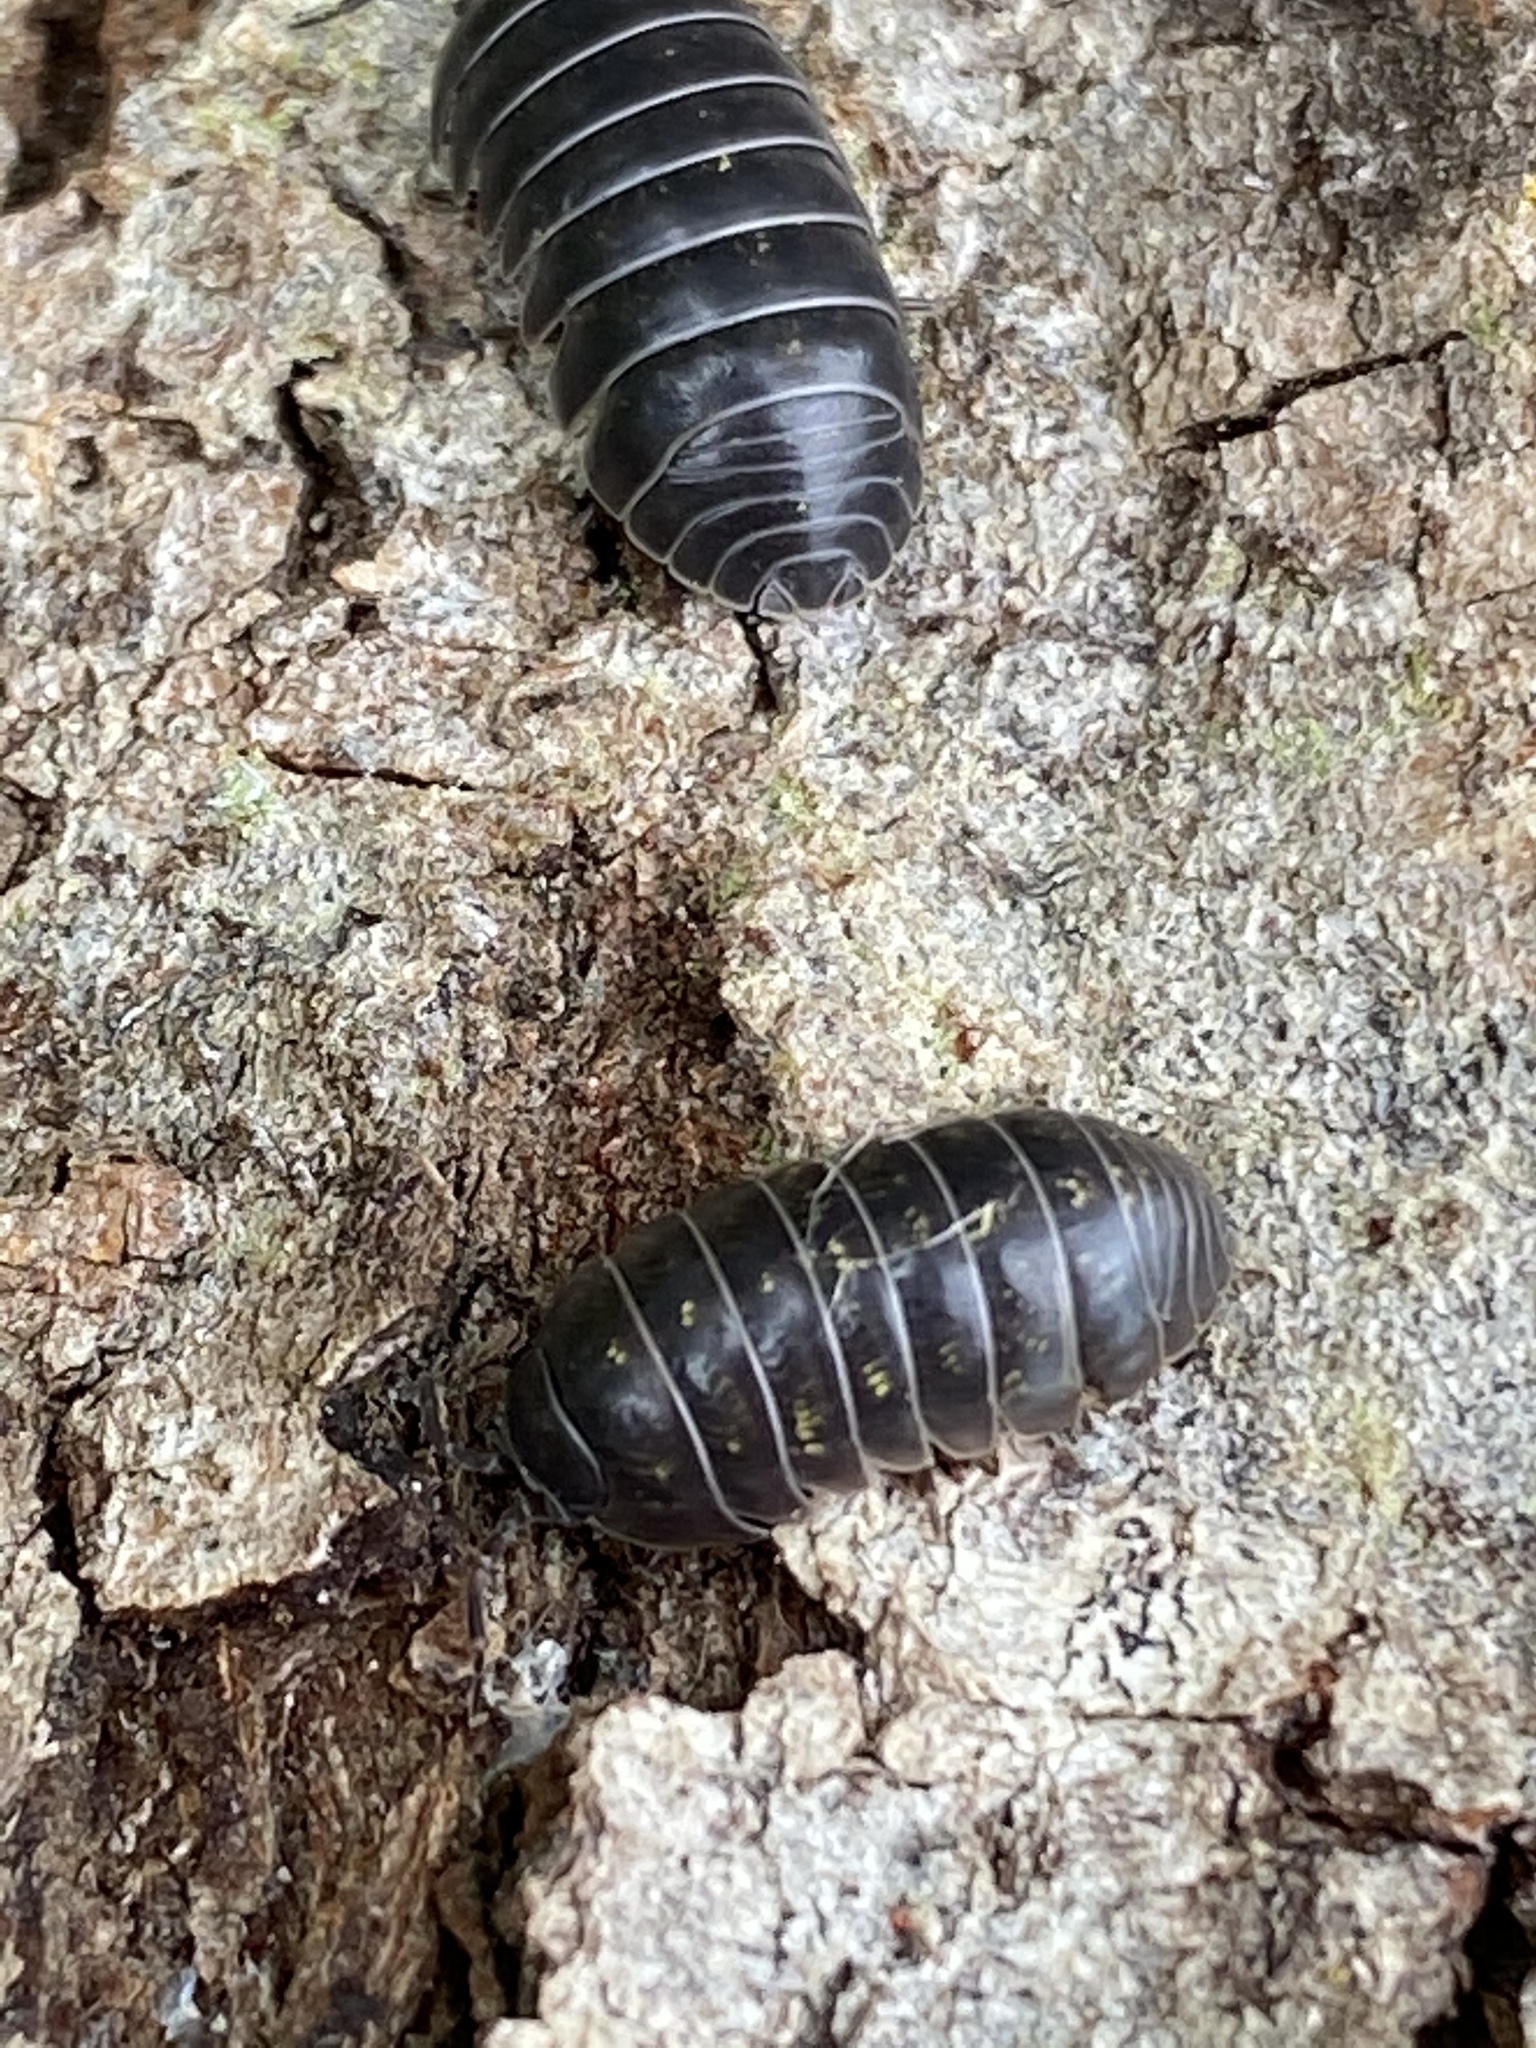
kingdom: Animalia
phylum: Arthropoda
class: Malacostraca
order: Isopoda
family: Armadillidiidae
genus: Armadillidium
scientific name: Armadillidium vulgare
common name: Common pill woodlouse
